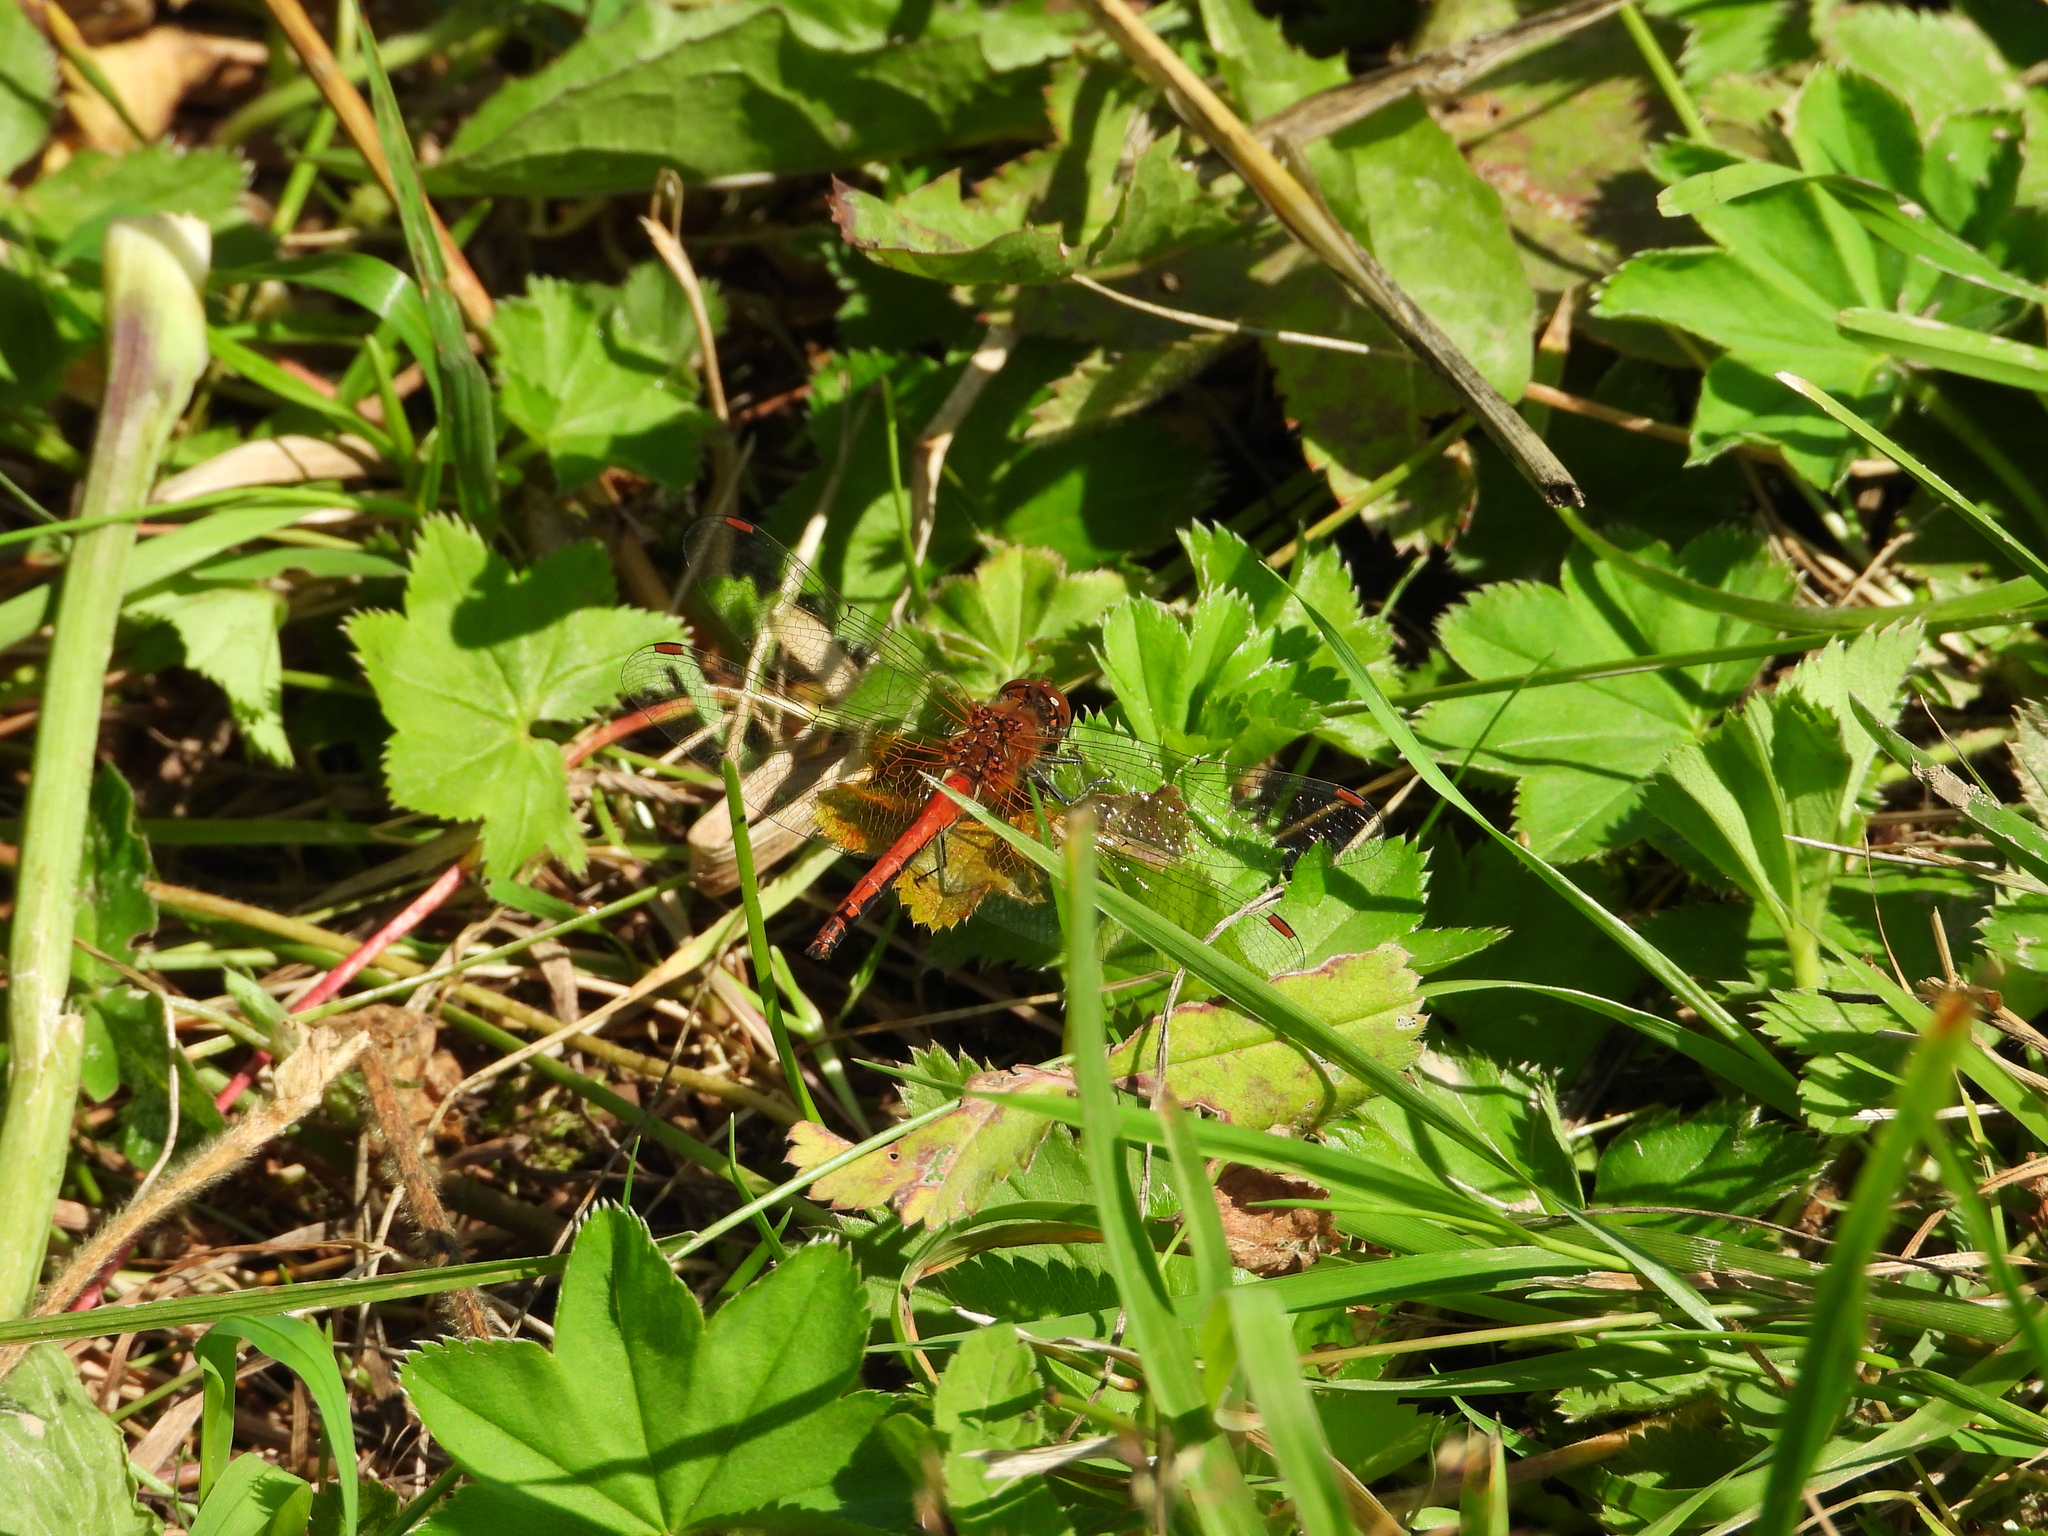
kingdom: Animalia
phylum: Arthropoda
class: Insecta
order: Odonata
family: Libellulidae
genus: Sympetrum
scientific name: Sympetrum flaveolum
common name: Yellow-winged darter
